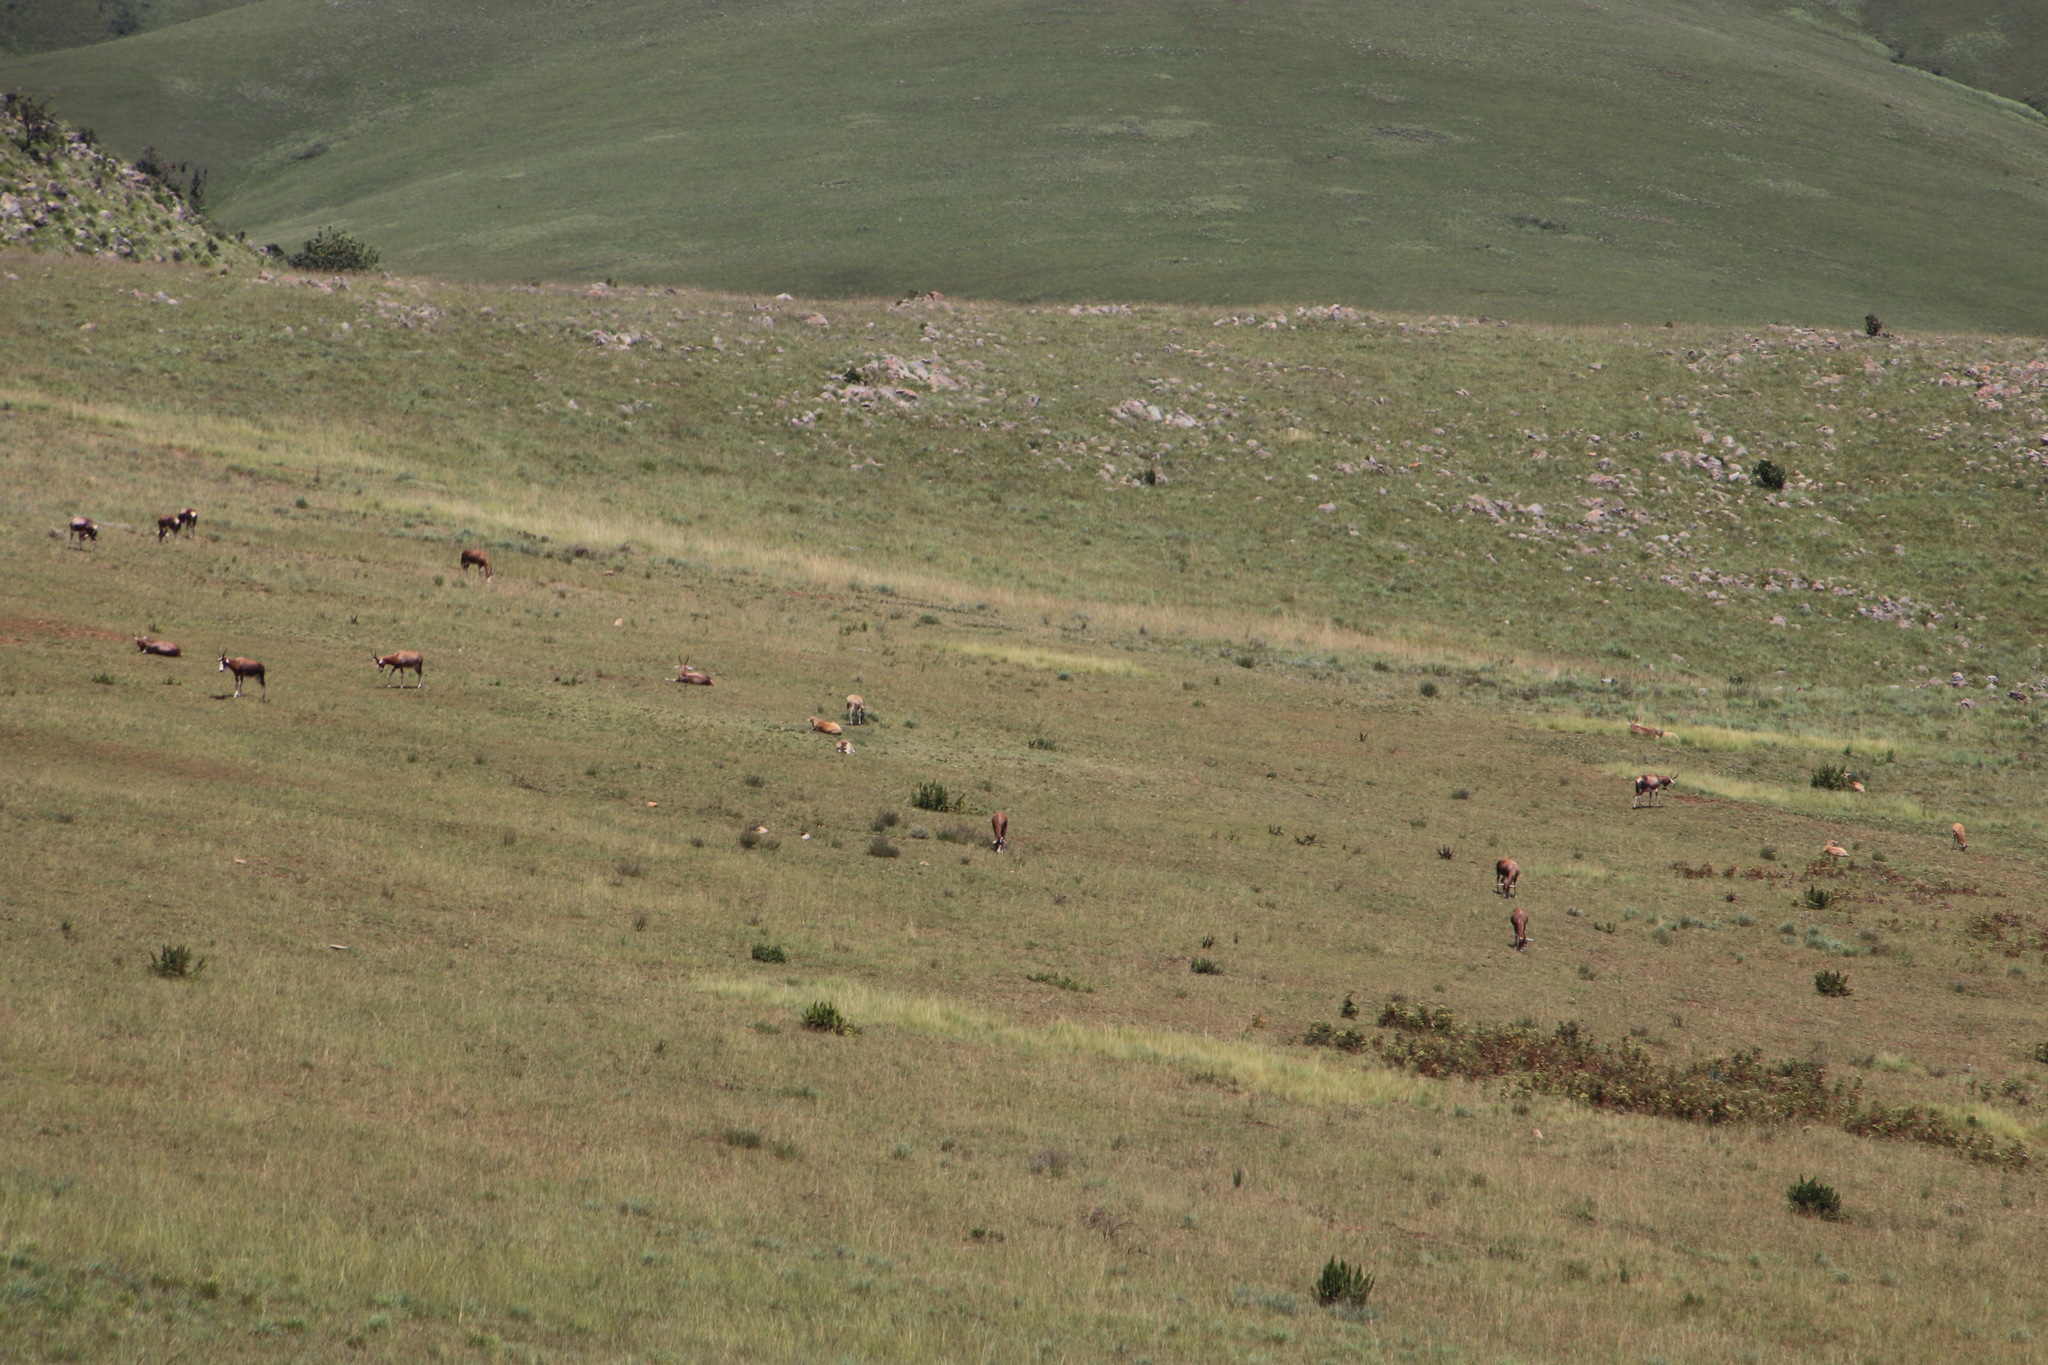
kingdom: Animalia
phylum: Chordata
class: Mammalia
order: Artiodactyla
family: Bovidae
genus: Damaliscus
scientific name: Damaliscus pygargus
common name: Bontebok
